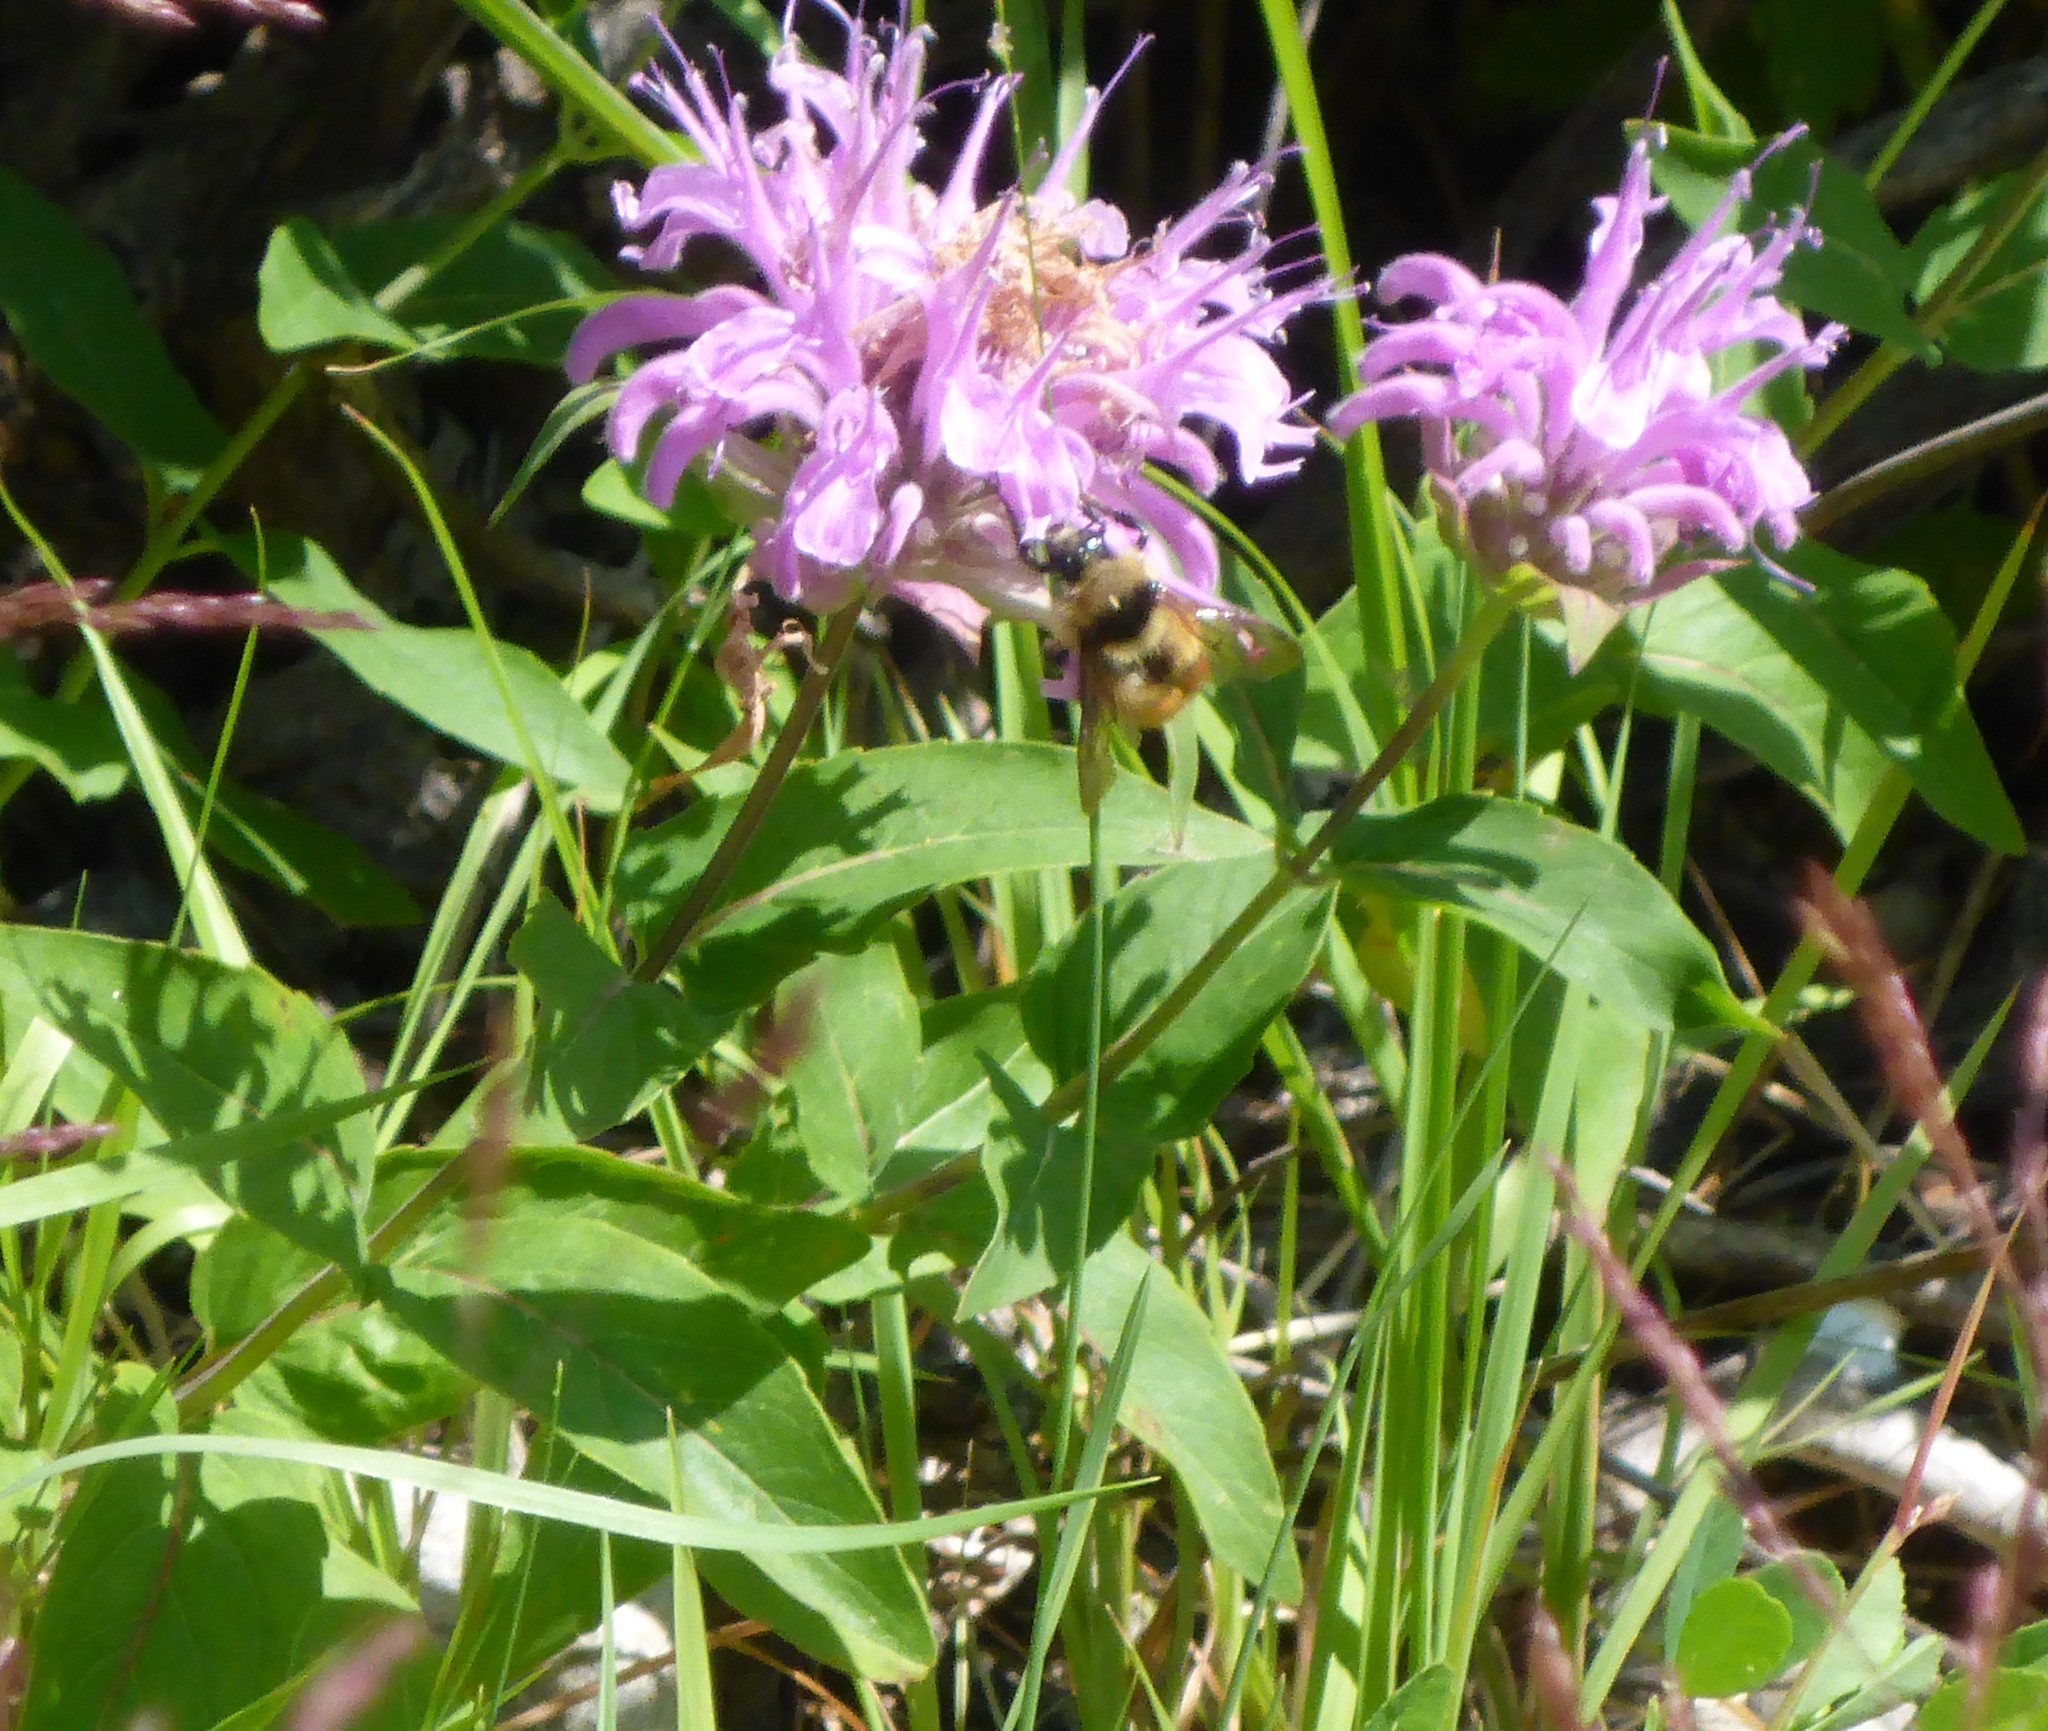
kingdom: Plantae
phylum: Tracheophyta
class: Magnoliopsida
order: Lamiales
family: Lamiaceae
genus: Monarda
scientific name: Monarda fistulosa
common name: Purple beebalm
